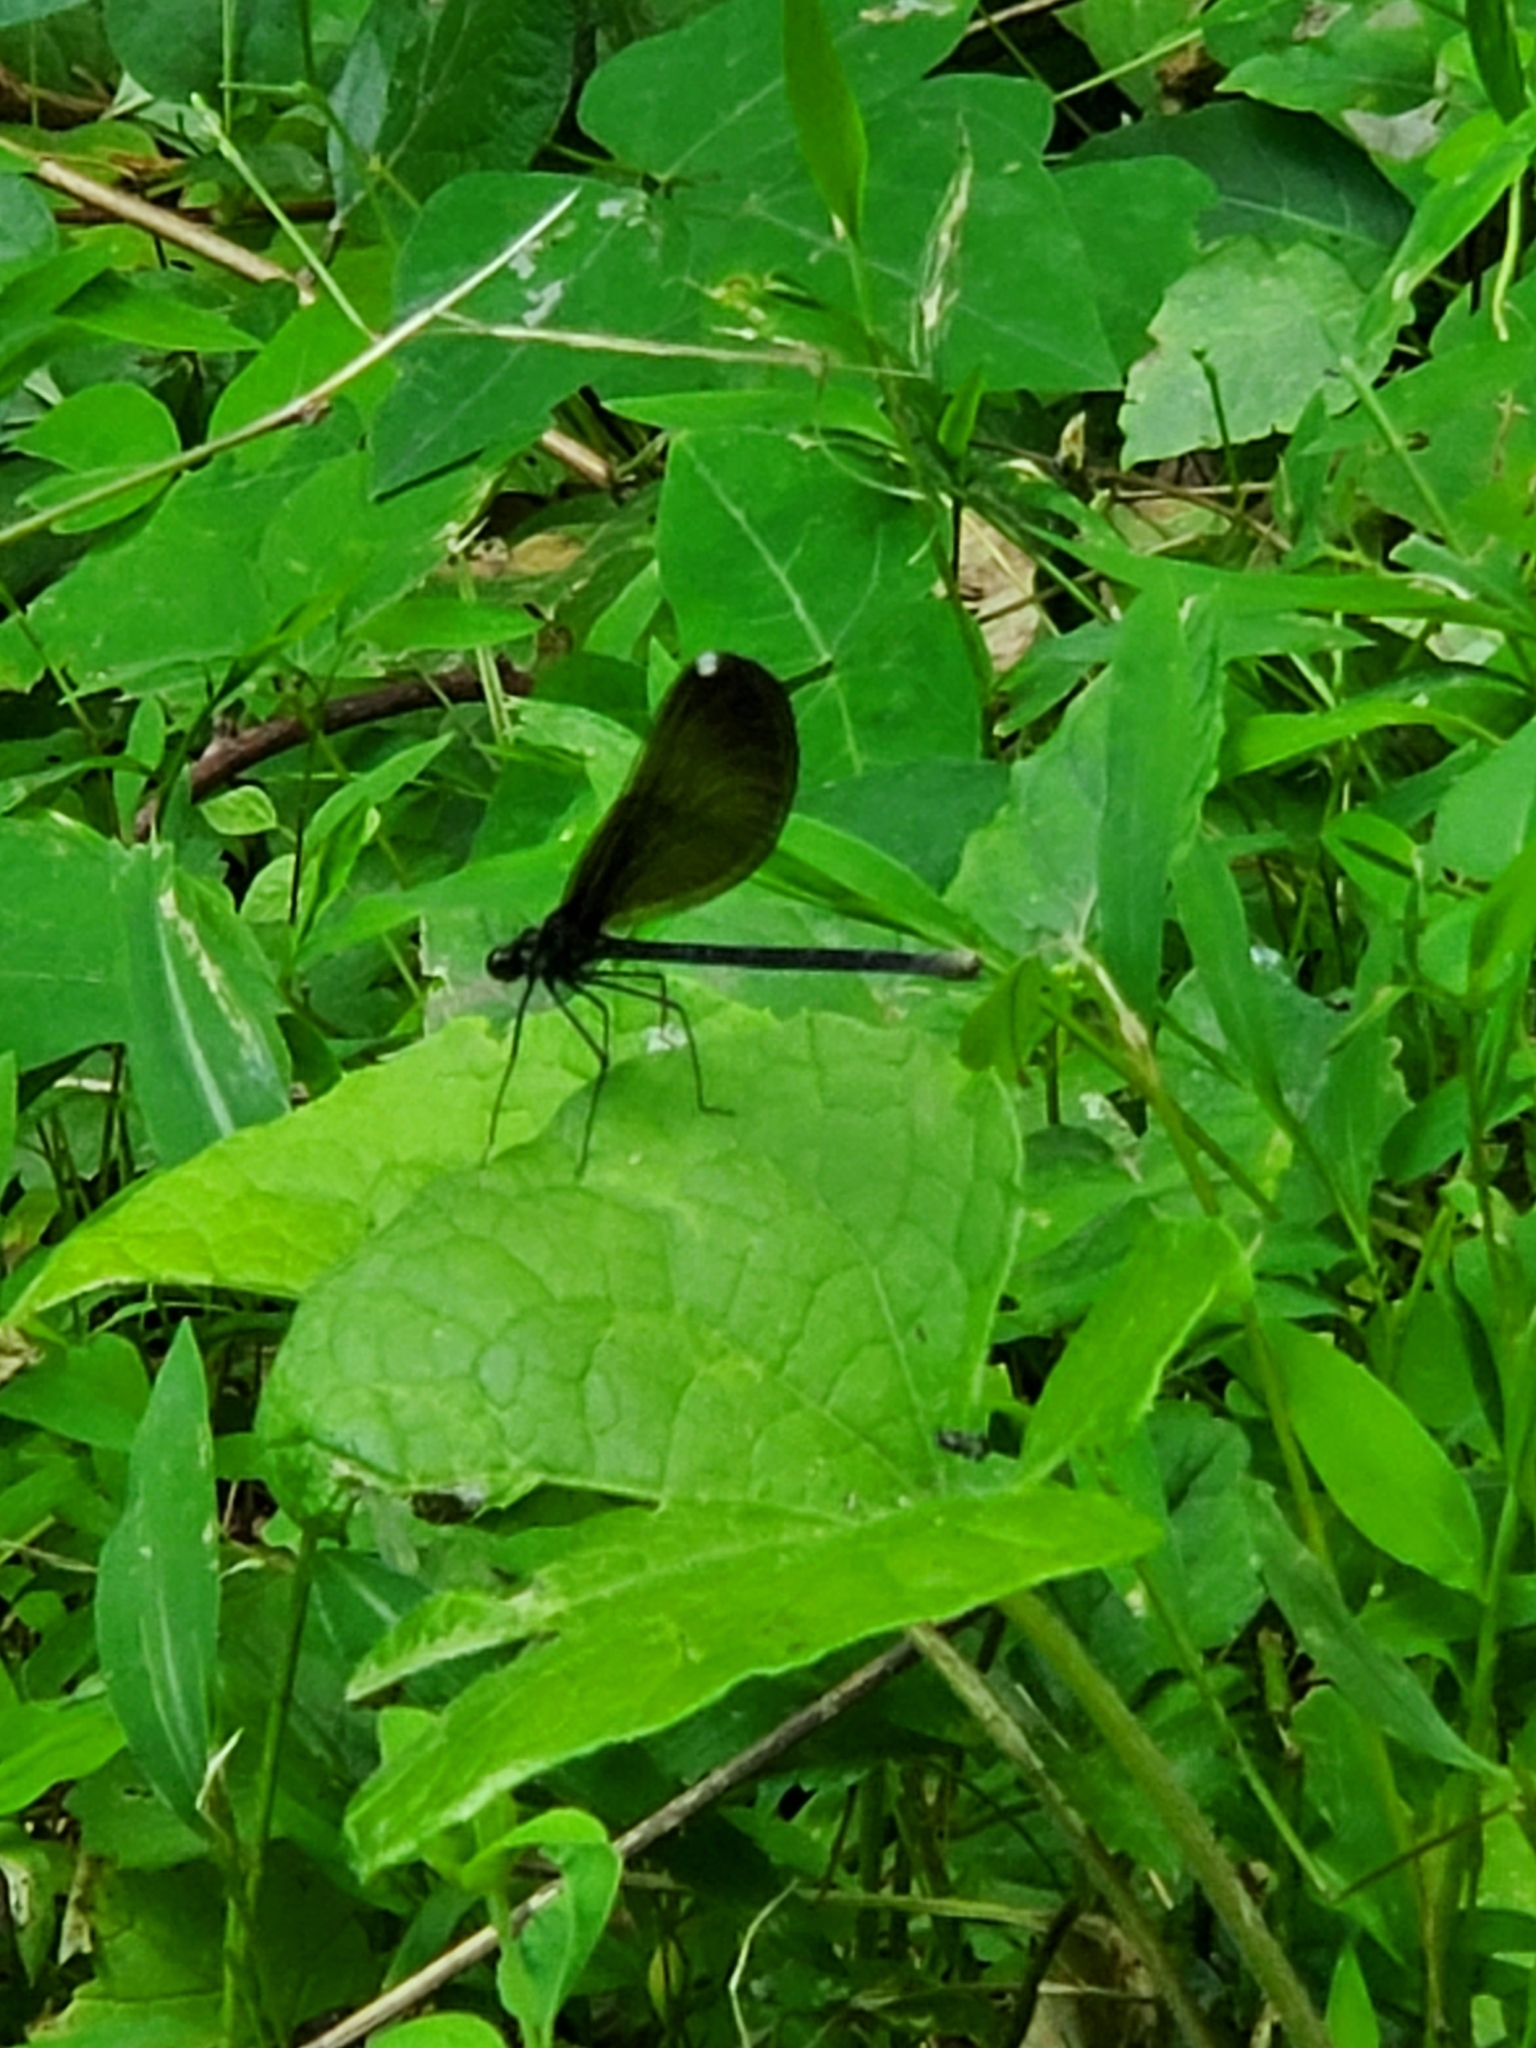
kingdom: Animalia
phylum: Arthropoda
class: Insecta
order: Odonata
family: Calopterygidae
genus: Calopteryx
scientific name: Calopteryx maculata
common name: Ebony jewelwing
